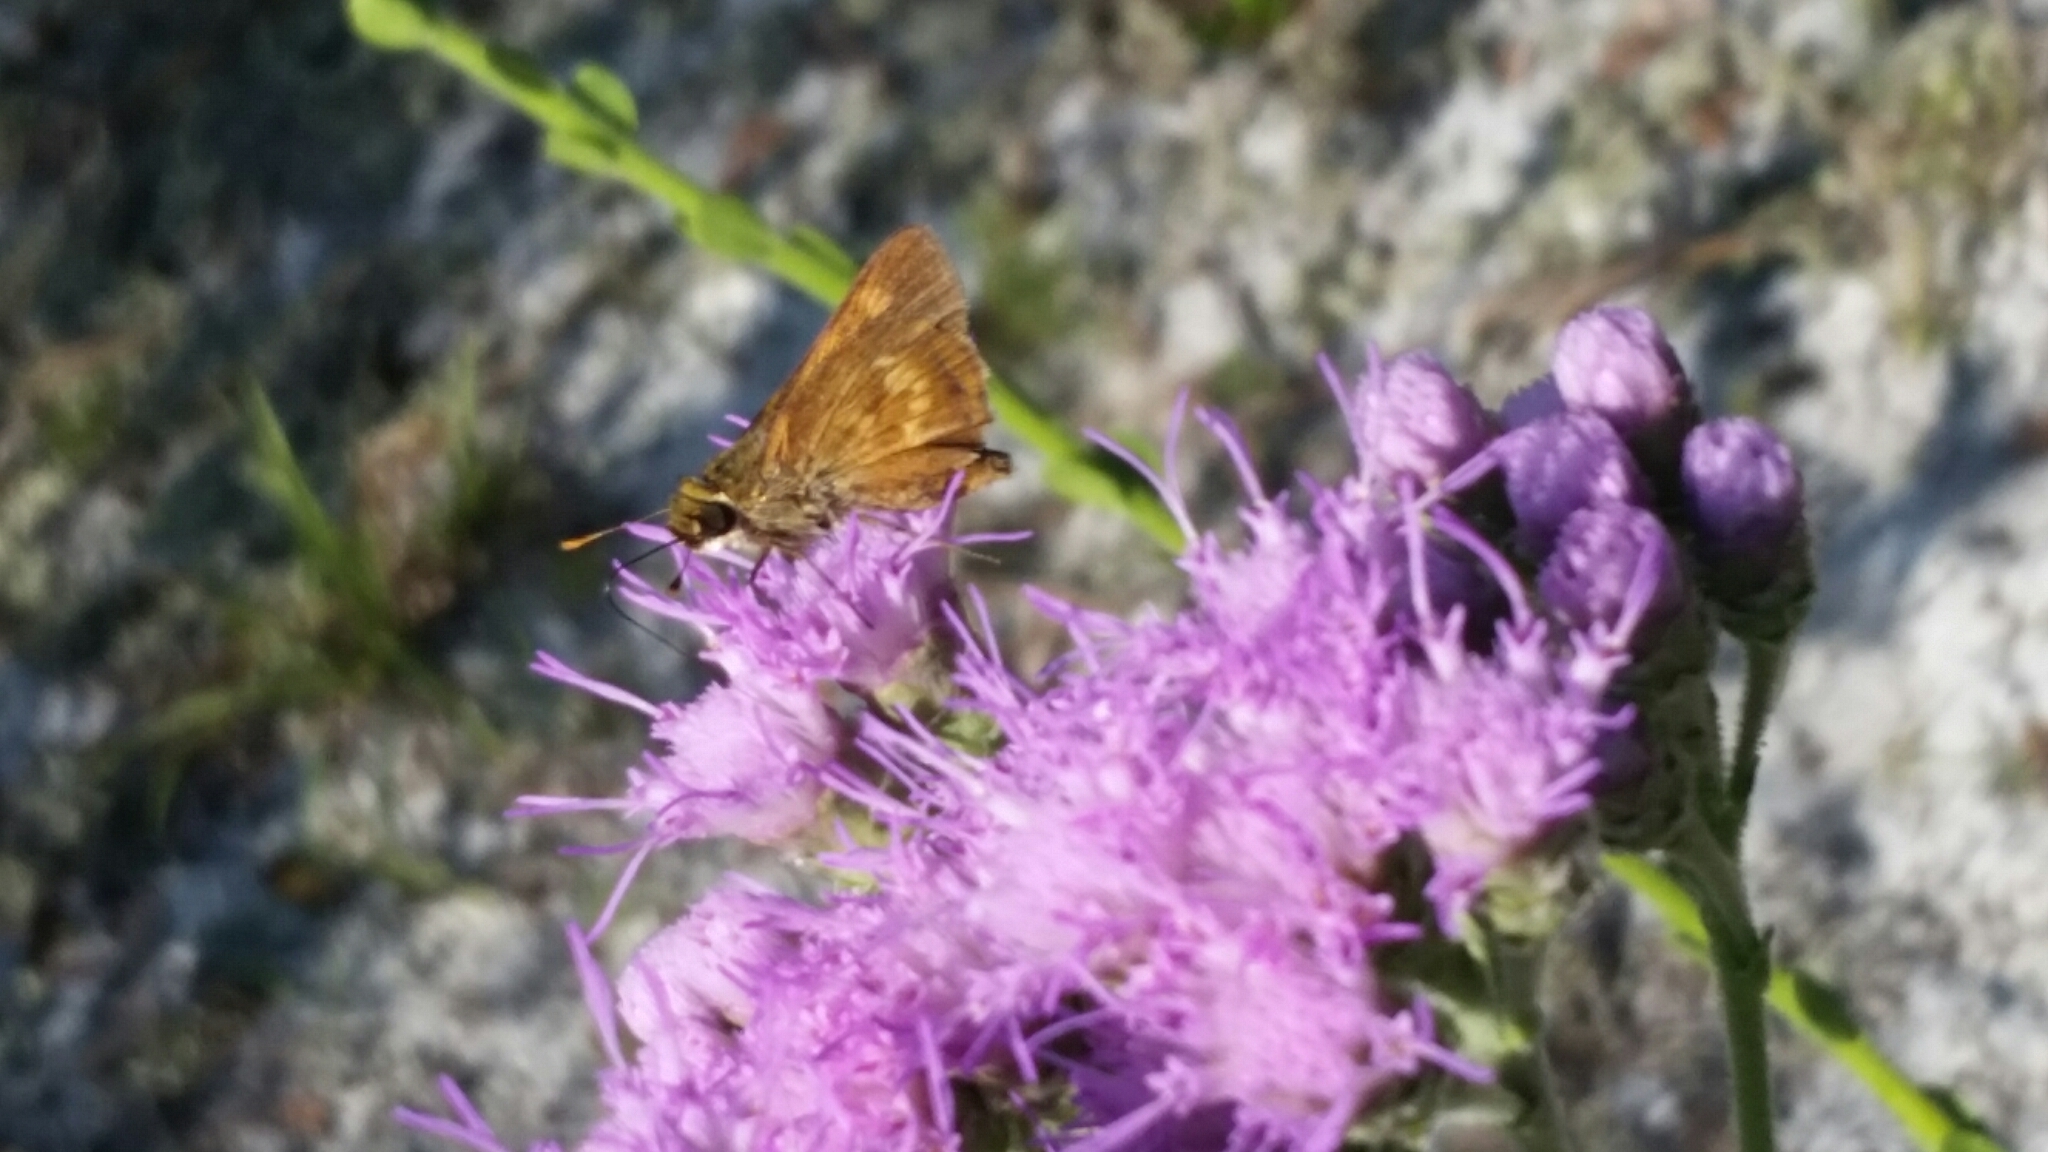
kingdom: Animalia
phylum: Arthropoda
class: Insecta
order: Lepidoptera
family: Hesperiidae
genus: Polites
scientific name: Polites otho
